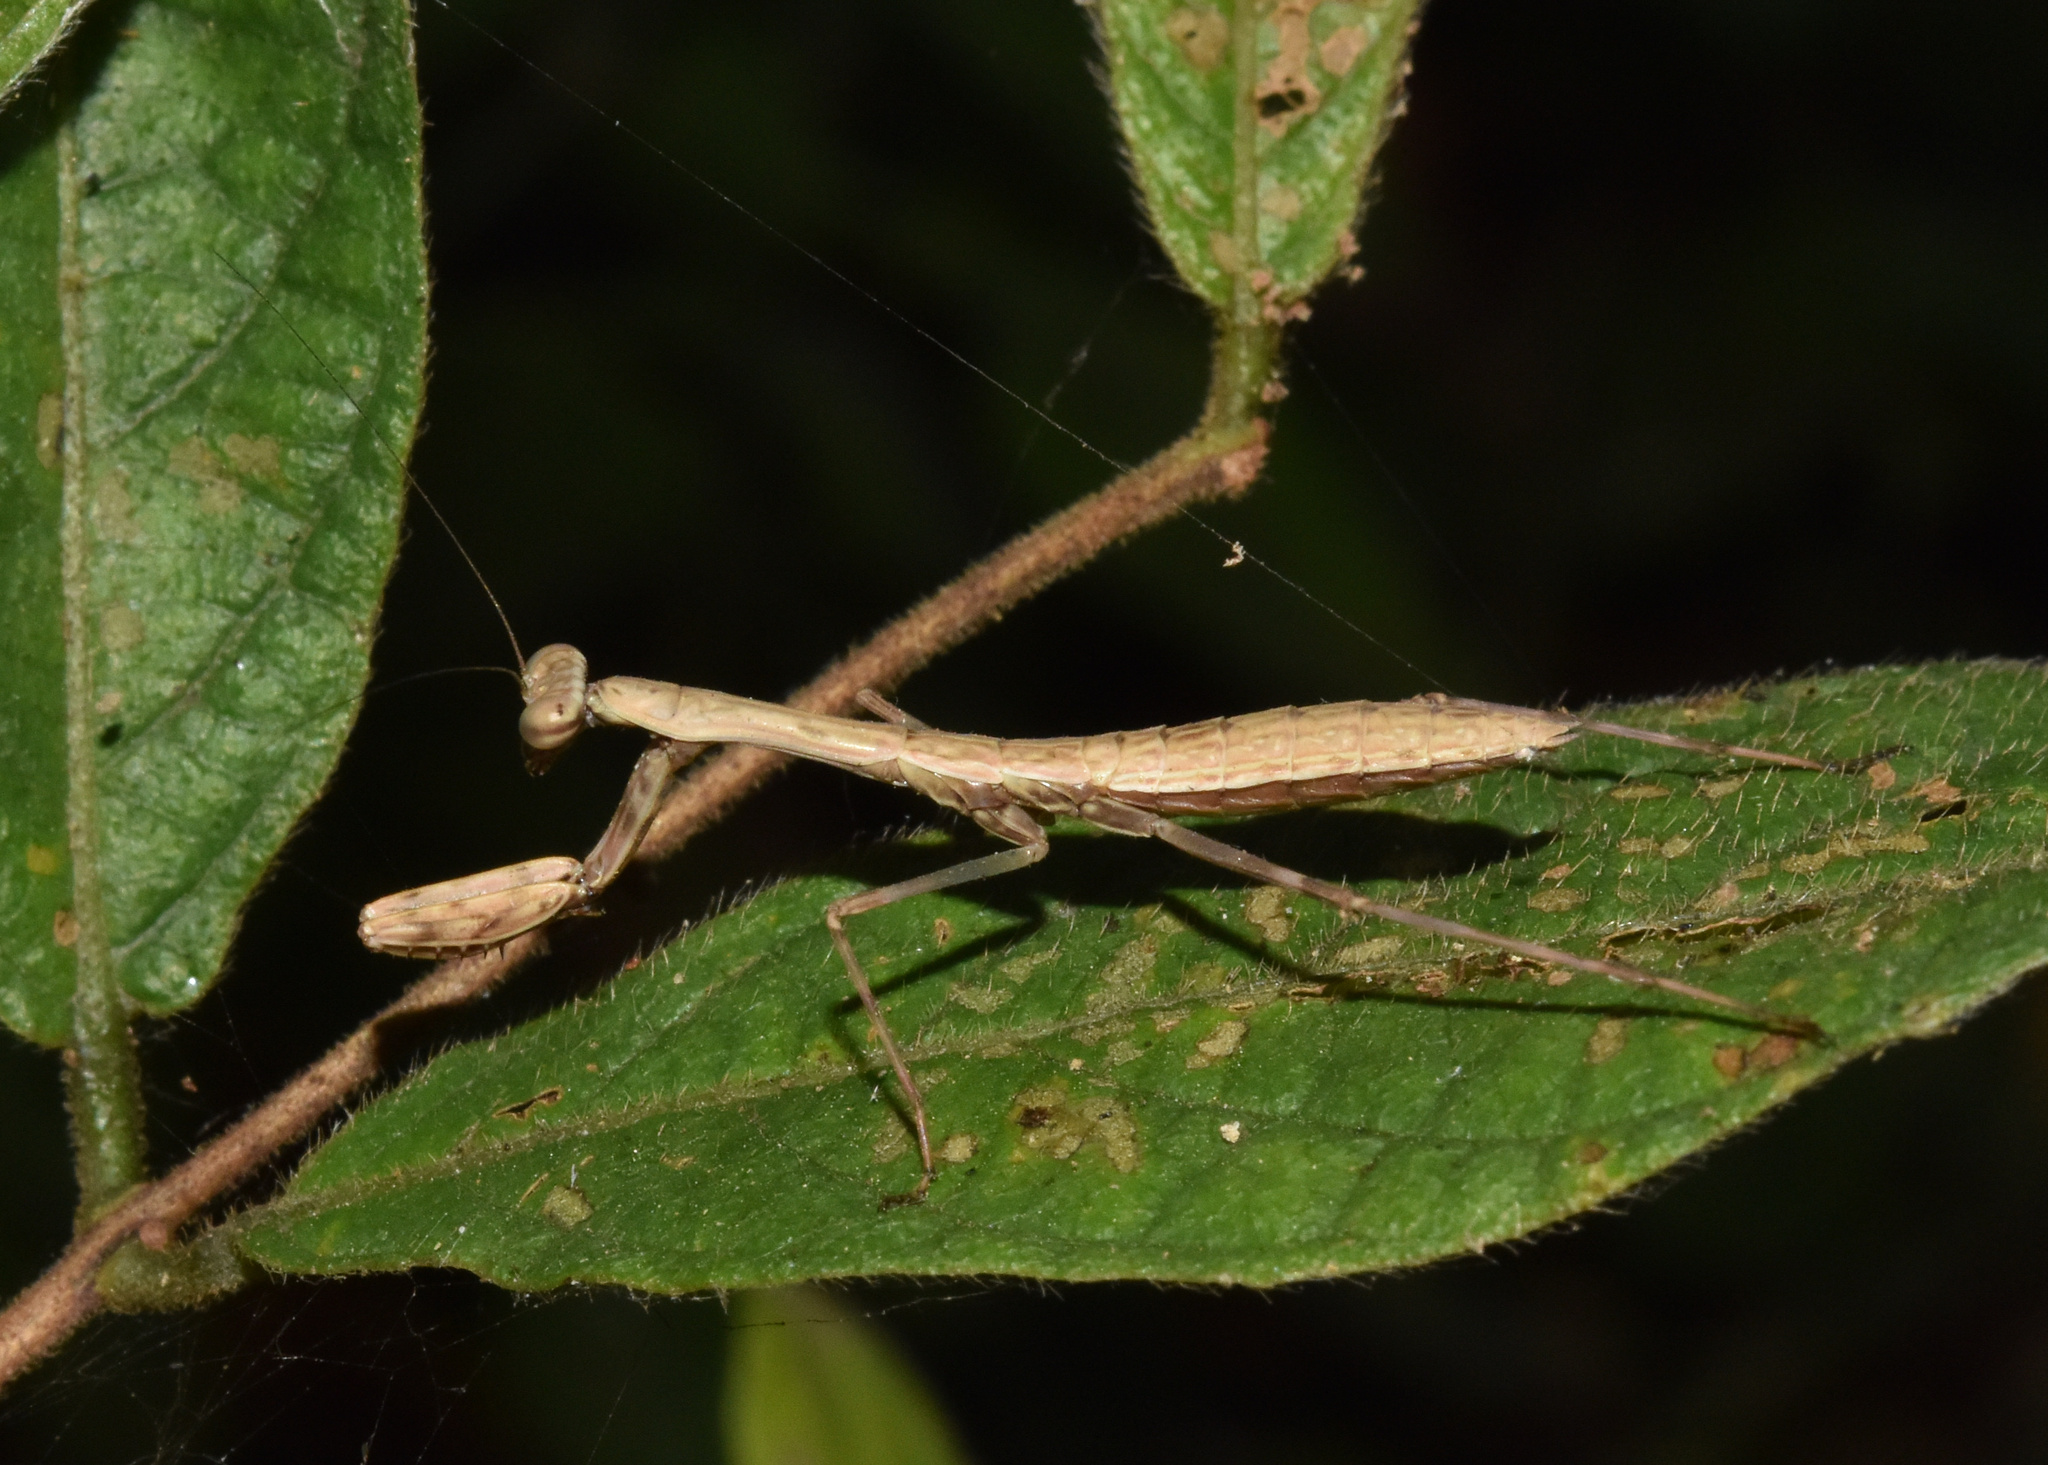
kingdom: Animalia
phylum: Arthropoda
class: Insecta
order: Mantodea
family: Mantidae
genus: Polyspilota
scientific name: Polyspilota aeruginosa
